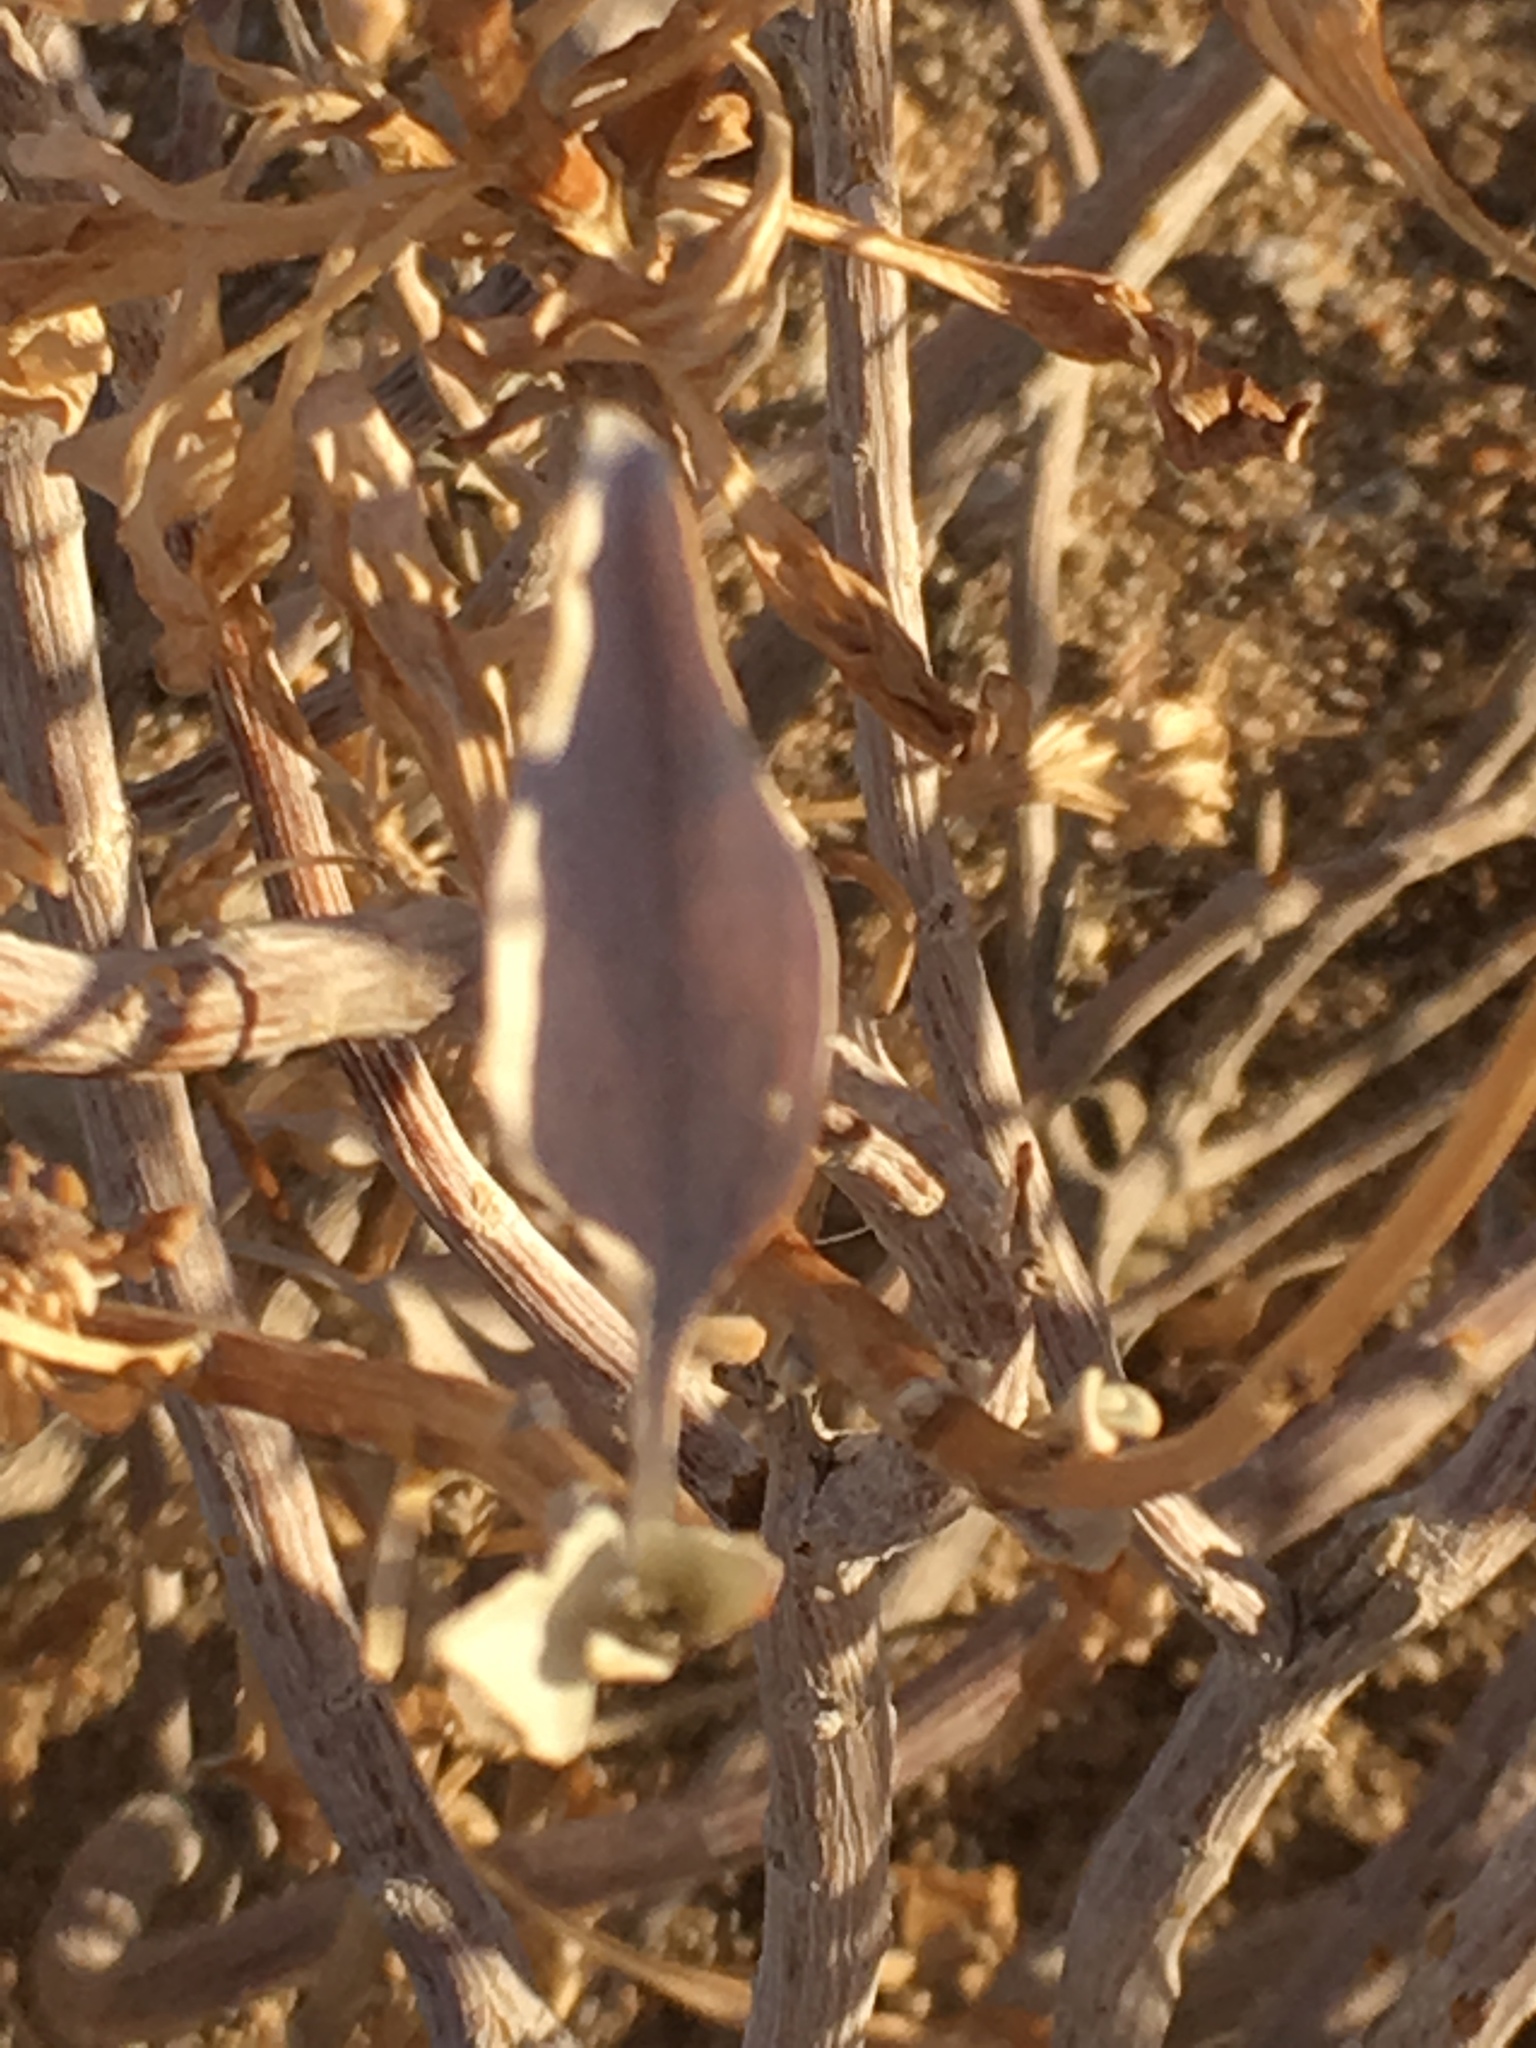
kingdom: Plantae
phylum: Tracheophyta
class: Magnoliopsida
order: Asterales
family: Asteraceae
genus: Encelia
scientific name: Encelia farinosa
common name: Brittlebush
